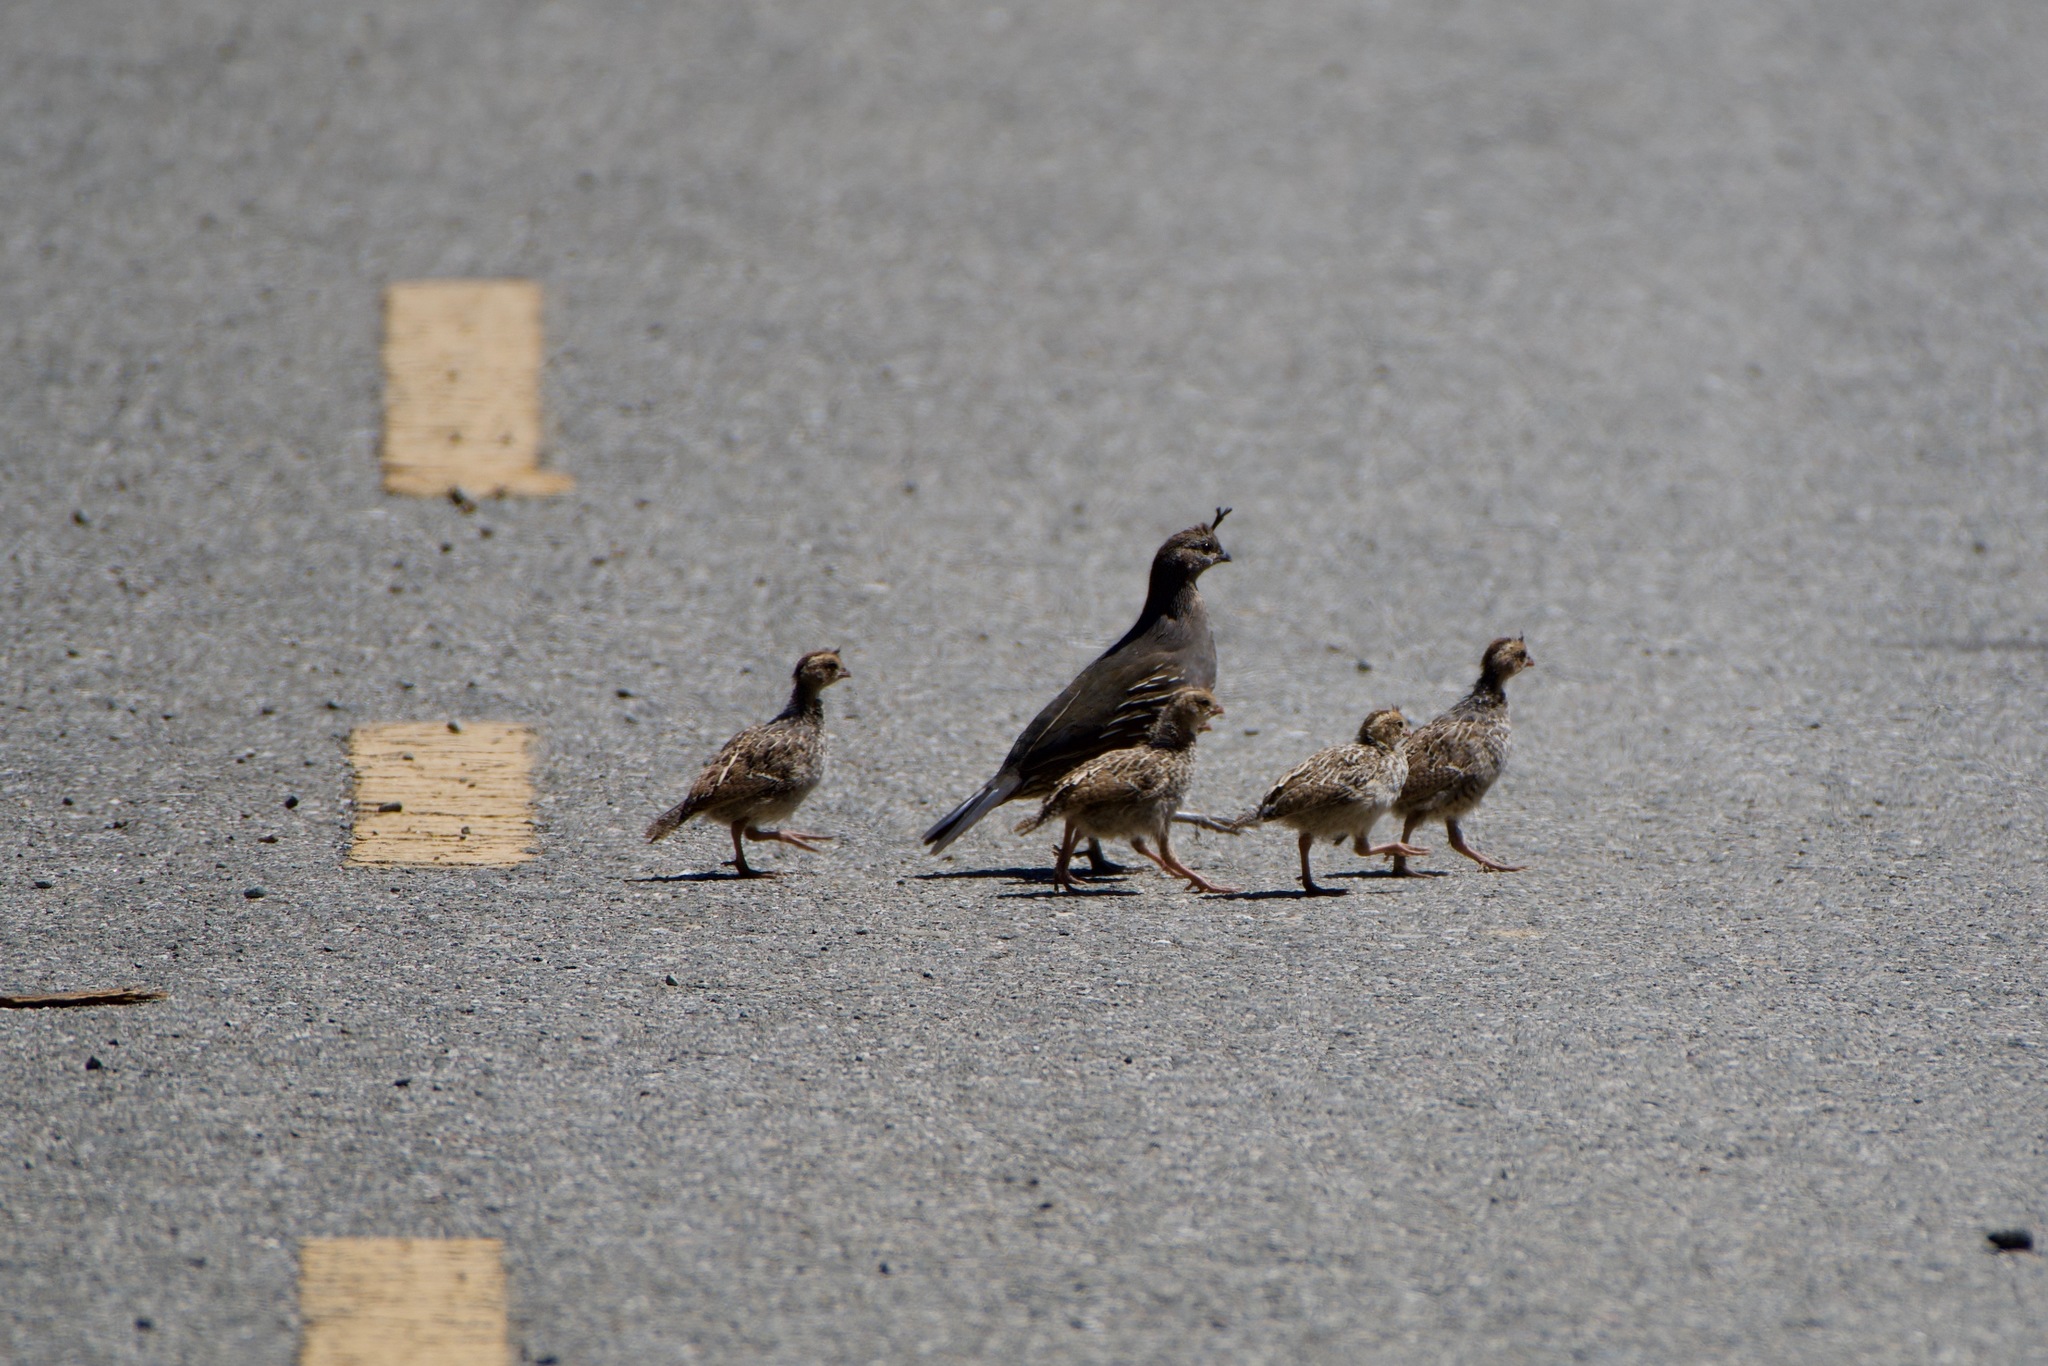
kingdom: Animalia
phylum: Chordata
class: Aves
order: Galliformes
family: Odontophoridae
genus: Callipepla
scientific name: Callipepla californica
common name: California quail
